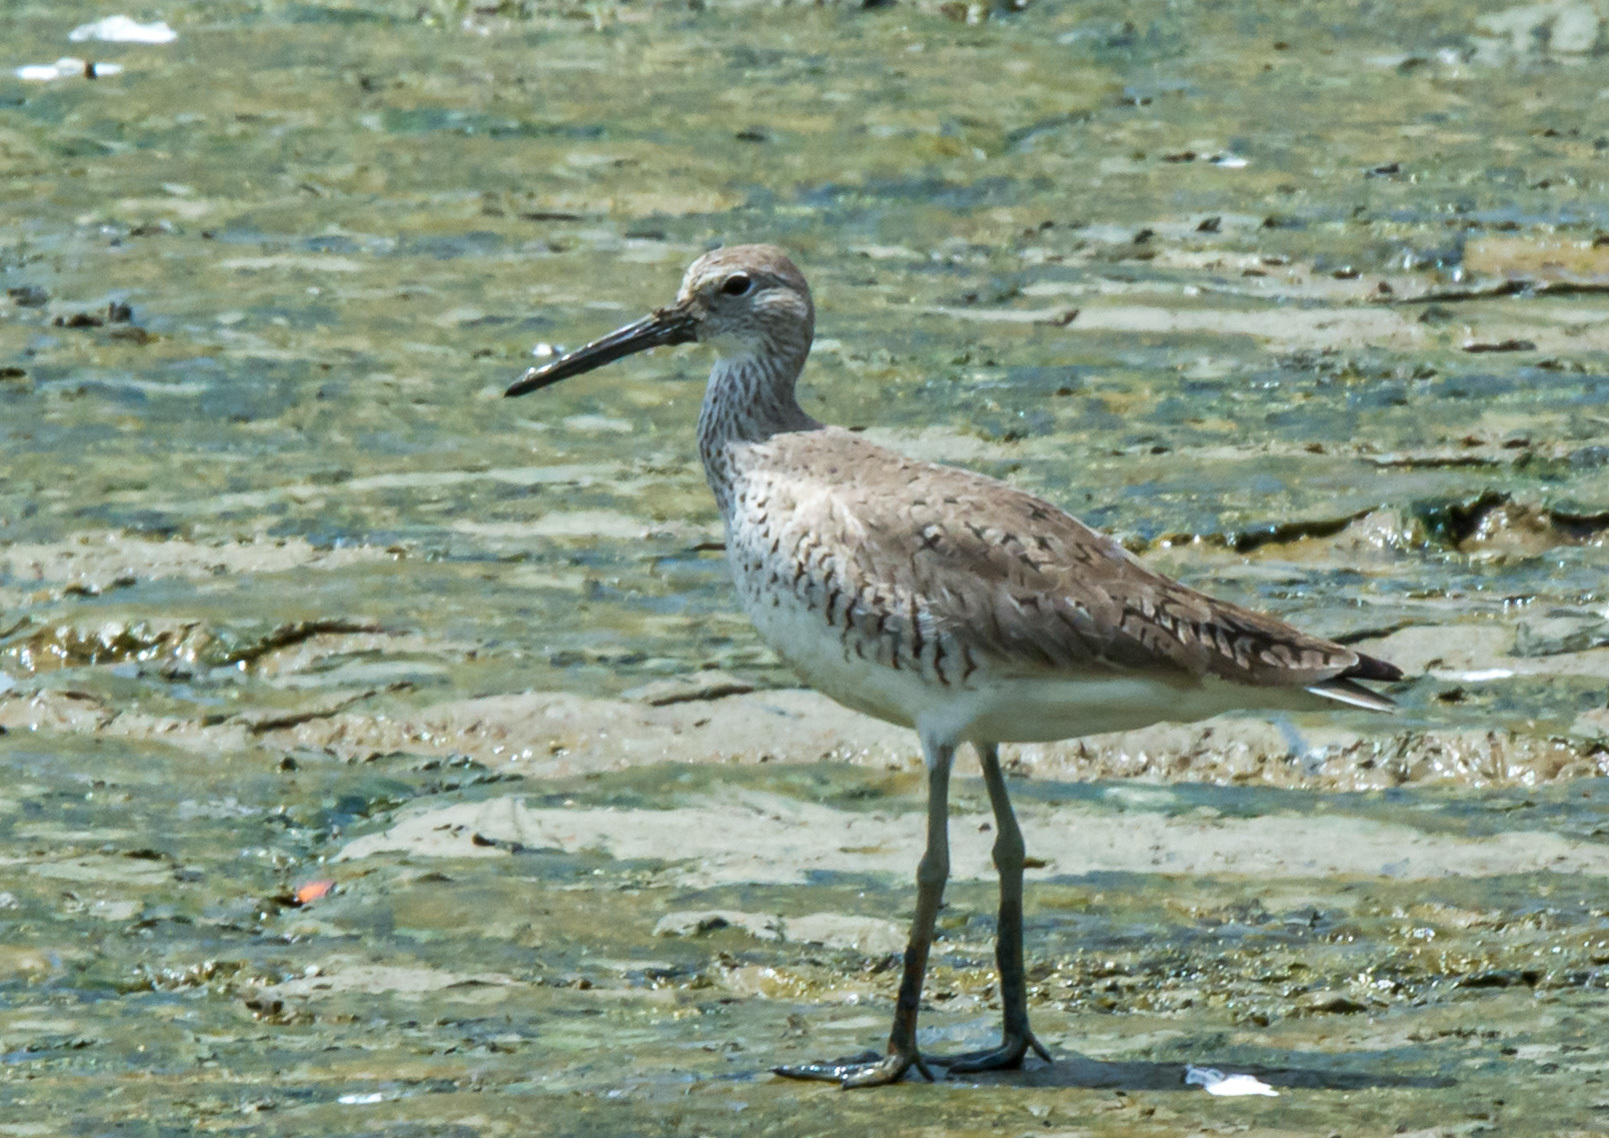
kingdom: Animalia
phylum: Chordata
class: Aves
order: Charadriiformes
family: Scolopacidae
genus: Tringa
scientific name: Tringa semipalmata
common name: Willet
